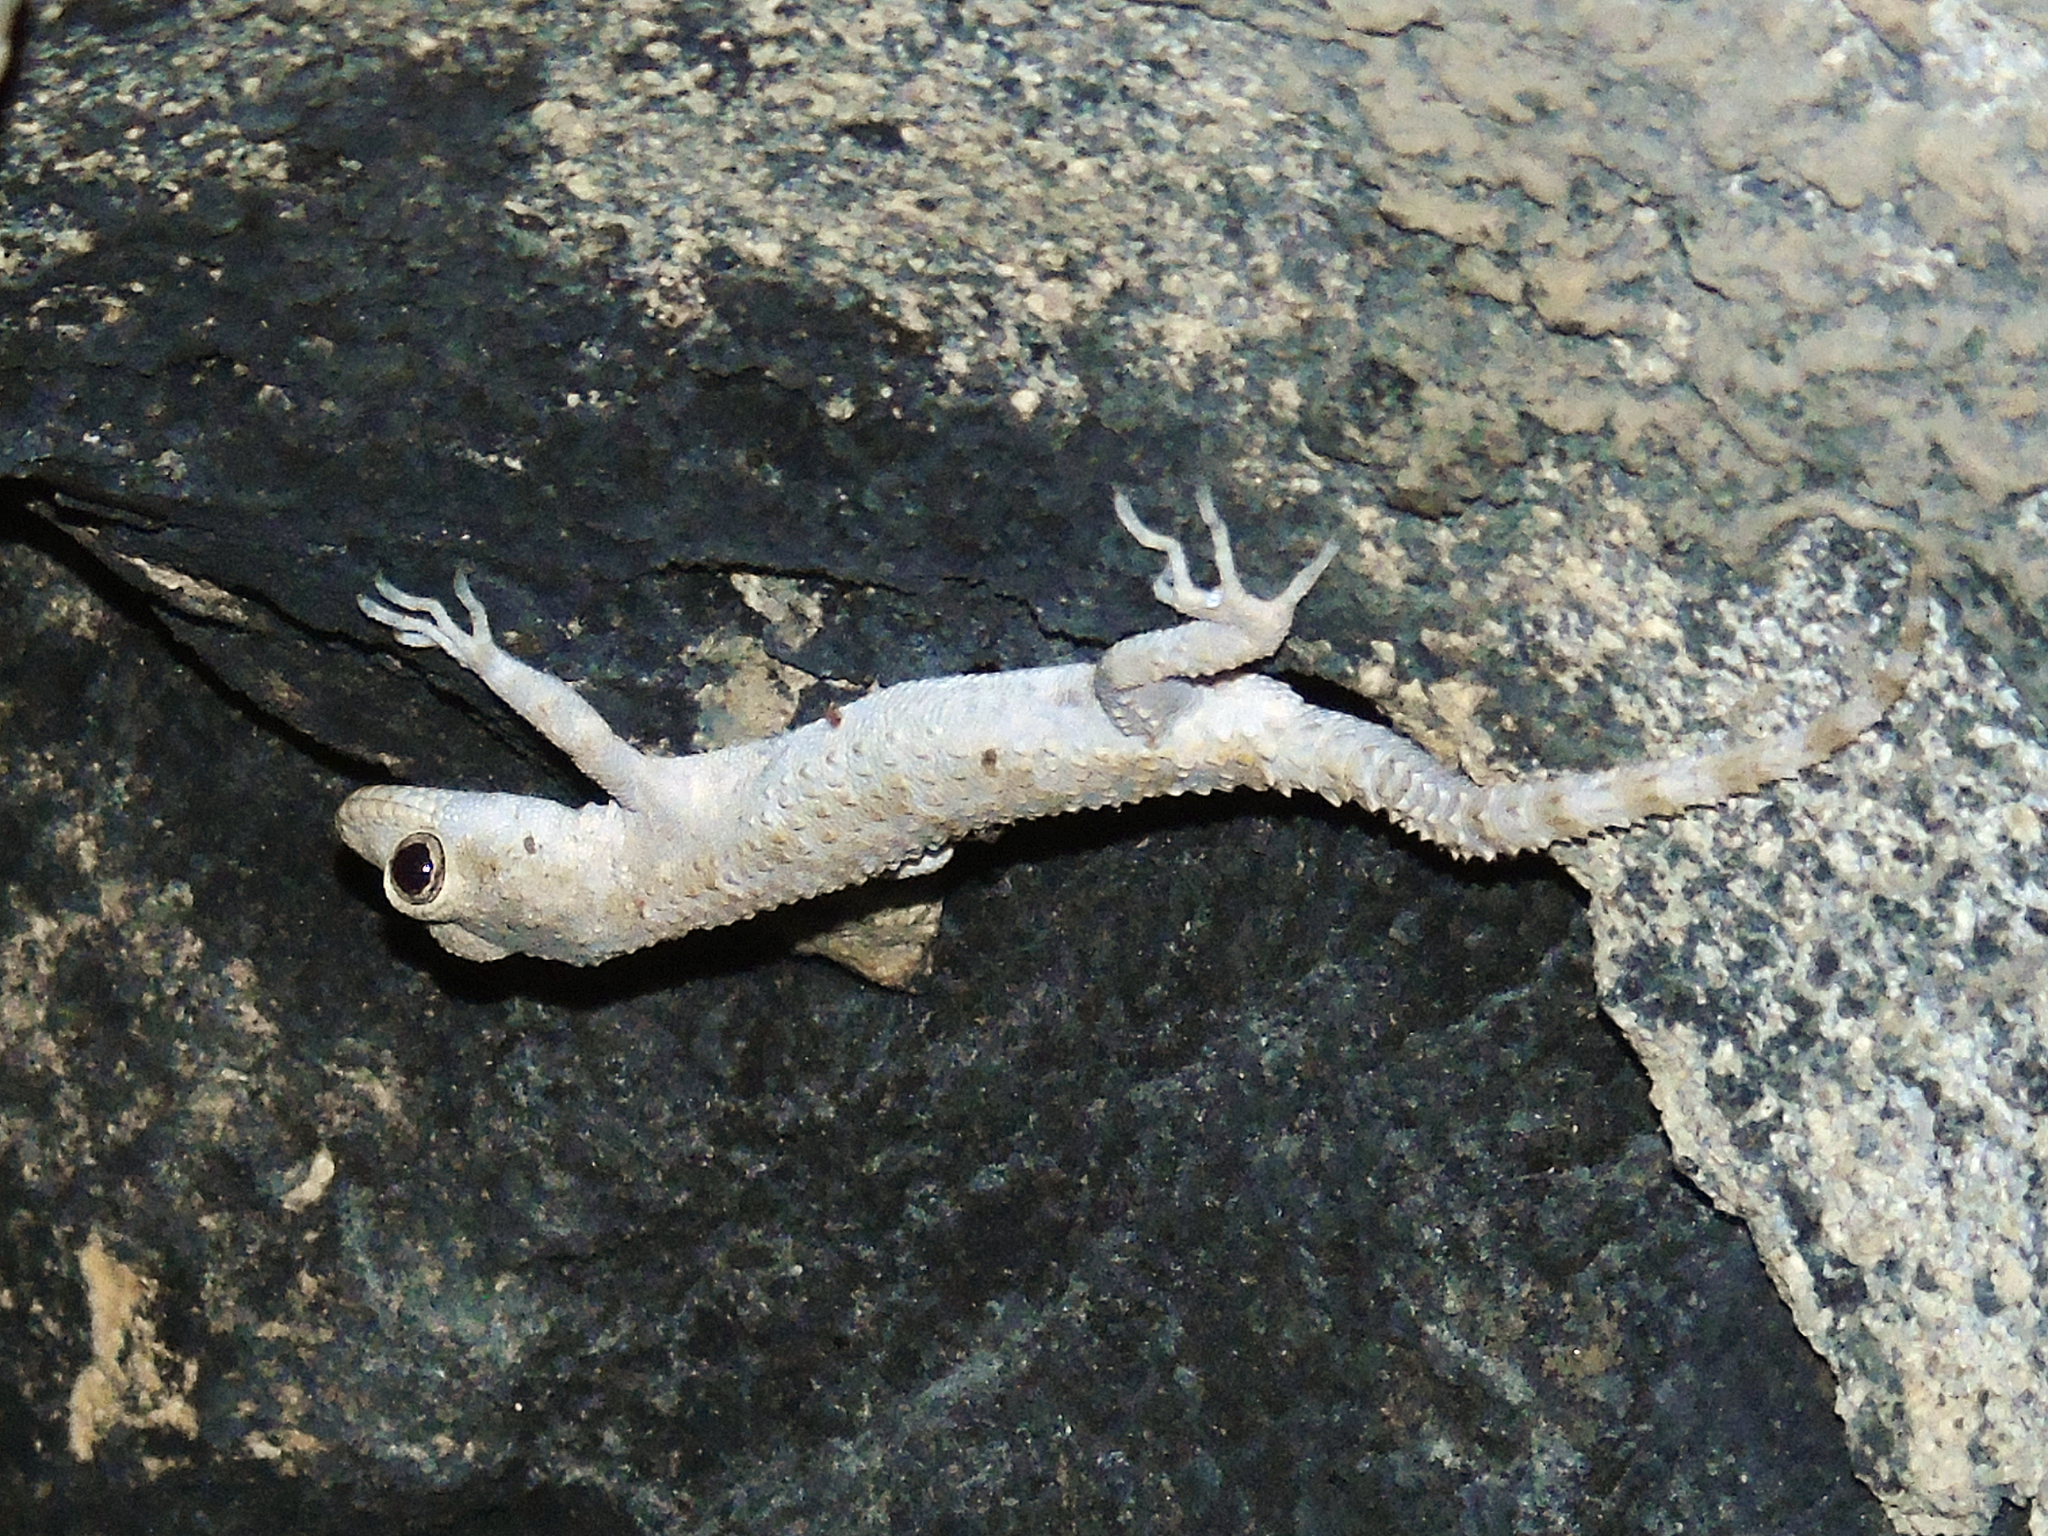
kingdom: Animalia
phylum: Chordata
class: Squamata
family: Gekkonidae
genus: Mediodactylus
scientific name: Mediodactylus heterocercus
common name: Asia minor thin-toed gecko
